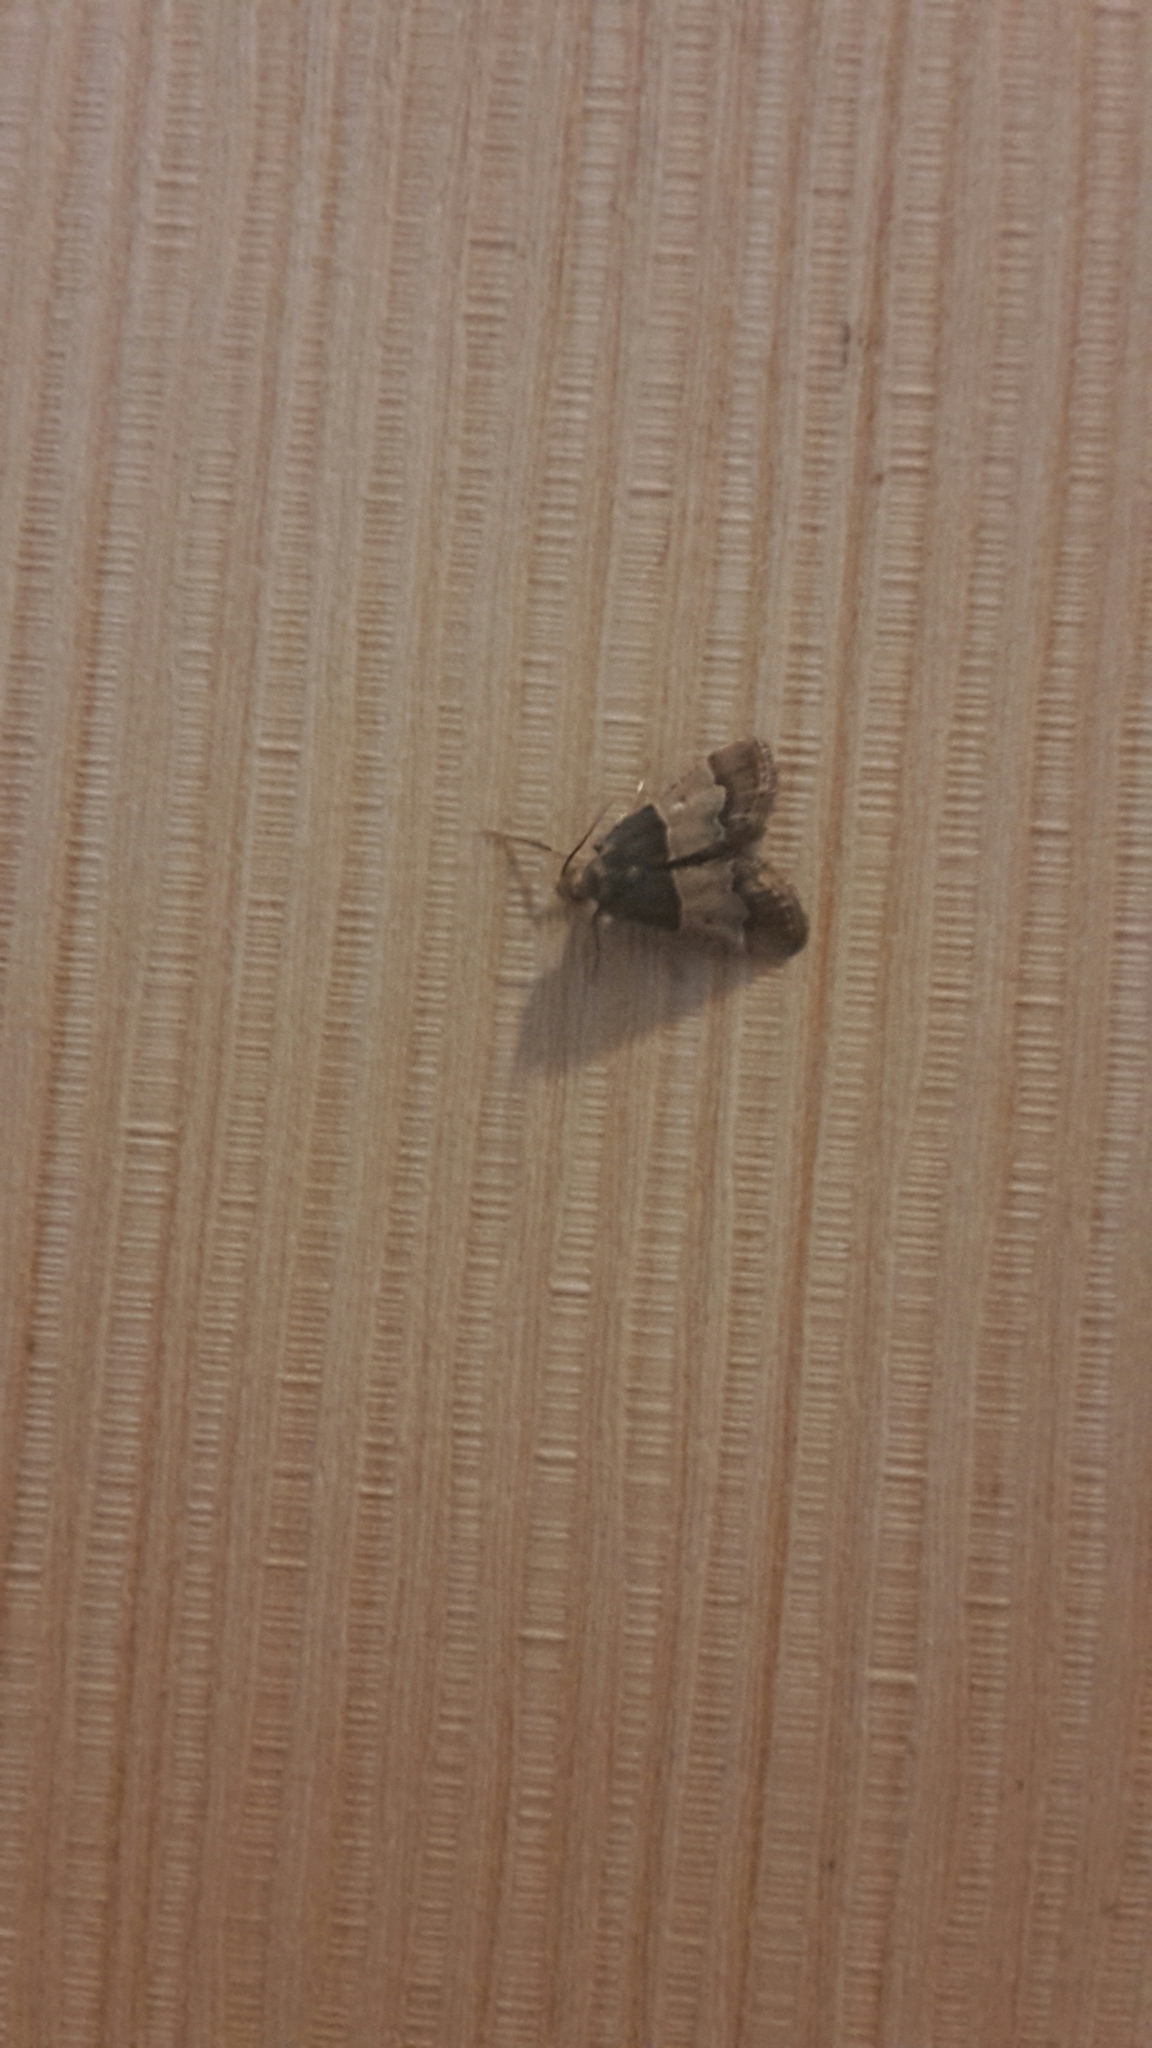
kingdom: Animalia
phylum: Arthropoda
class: Insecta
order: Lepidoptera
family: Pyralidae
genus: Pyralis
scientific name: Pyralis farinalis
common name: Meal moth
